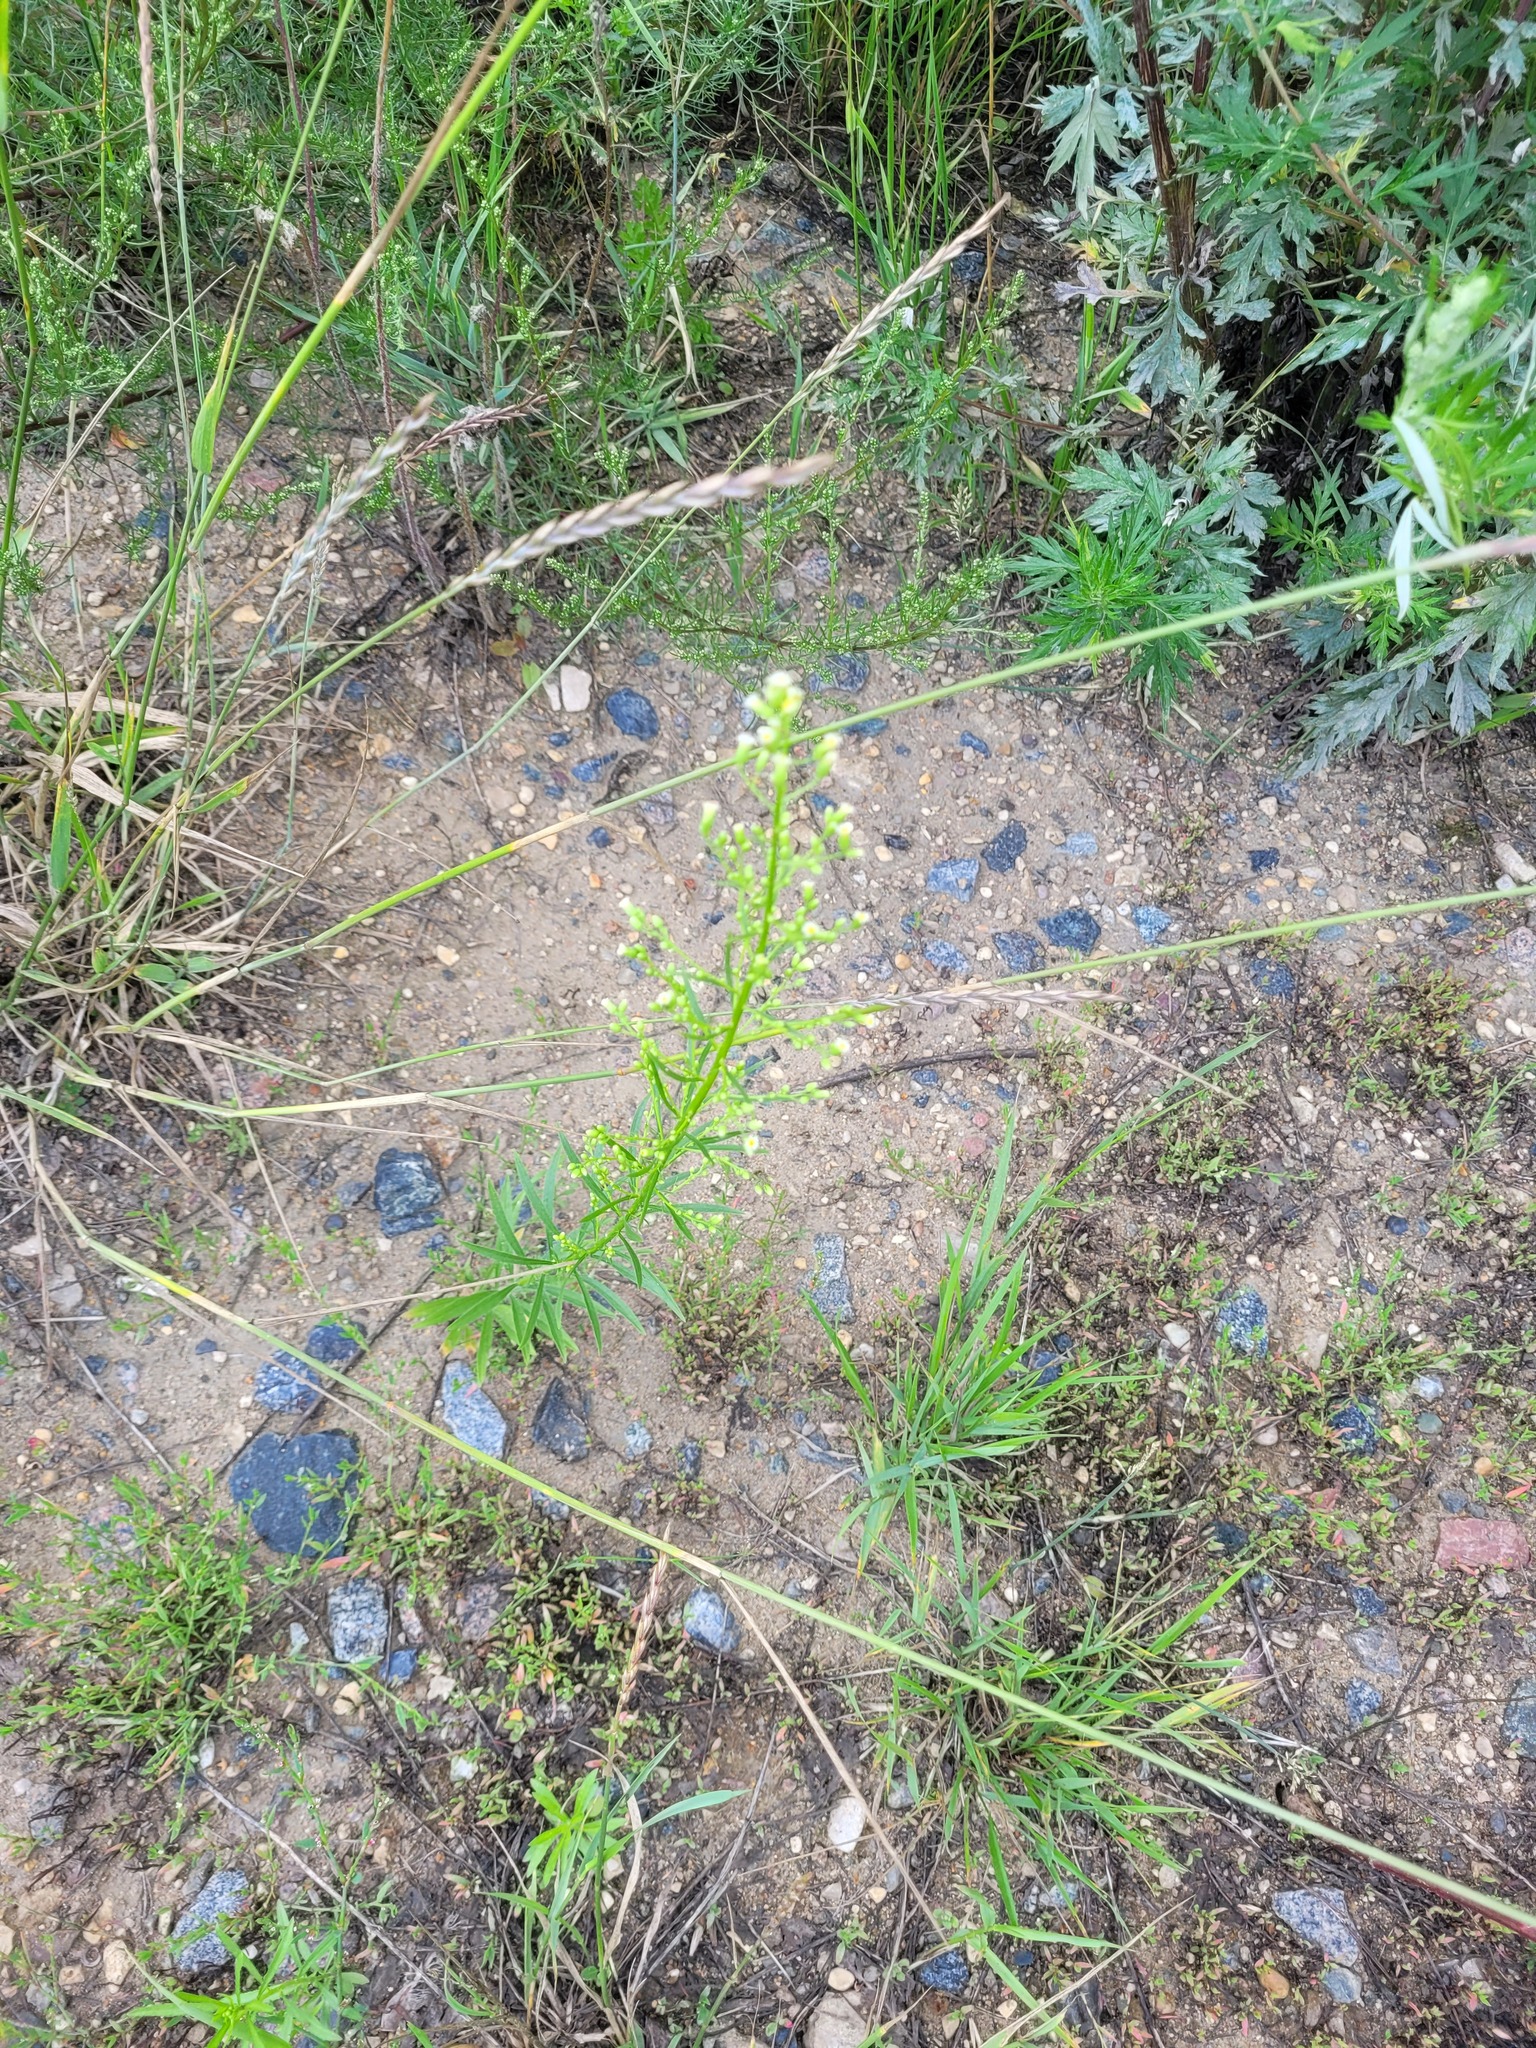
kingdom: Plantae
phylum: Tracheophyta
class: Magnoliopsida
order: Asterales
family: Asteraceae
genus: Erigeron
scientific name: Erigeron canadensis
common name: Canadian fleabane
